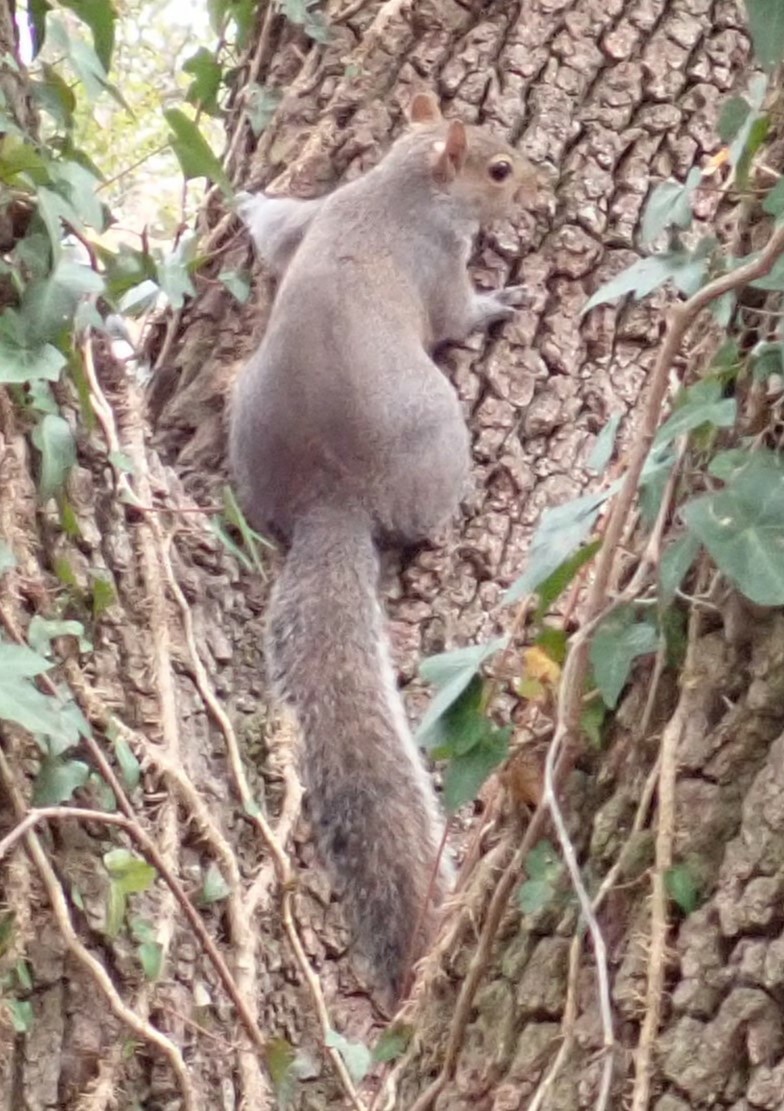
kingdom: Animalia
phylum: Chordata
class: Mammalia
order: Rodentia
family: Sciuridae
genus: Sciurus
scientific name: Sciurus carolinensis
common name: Eastern gray squirrel
